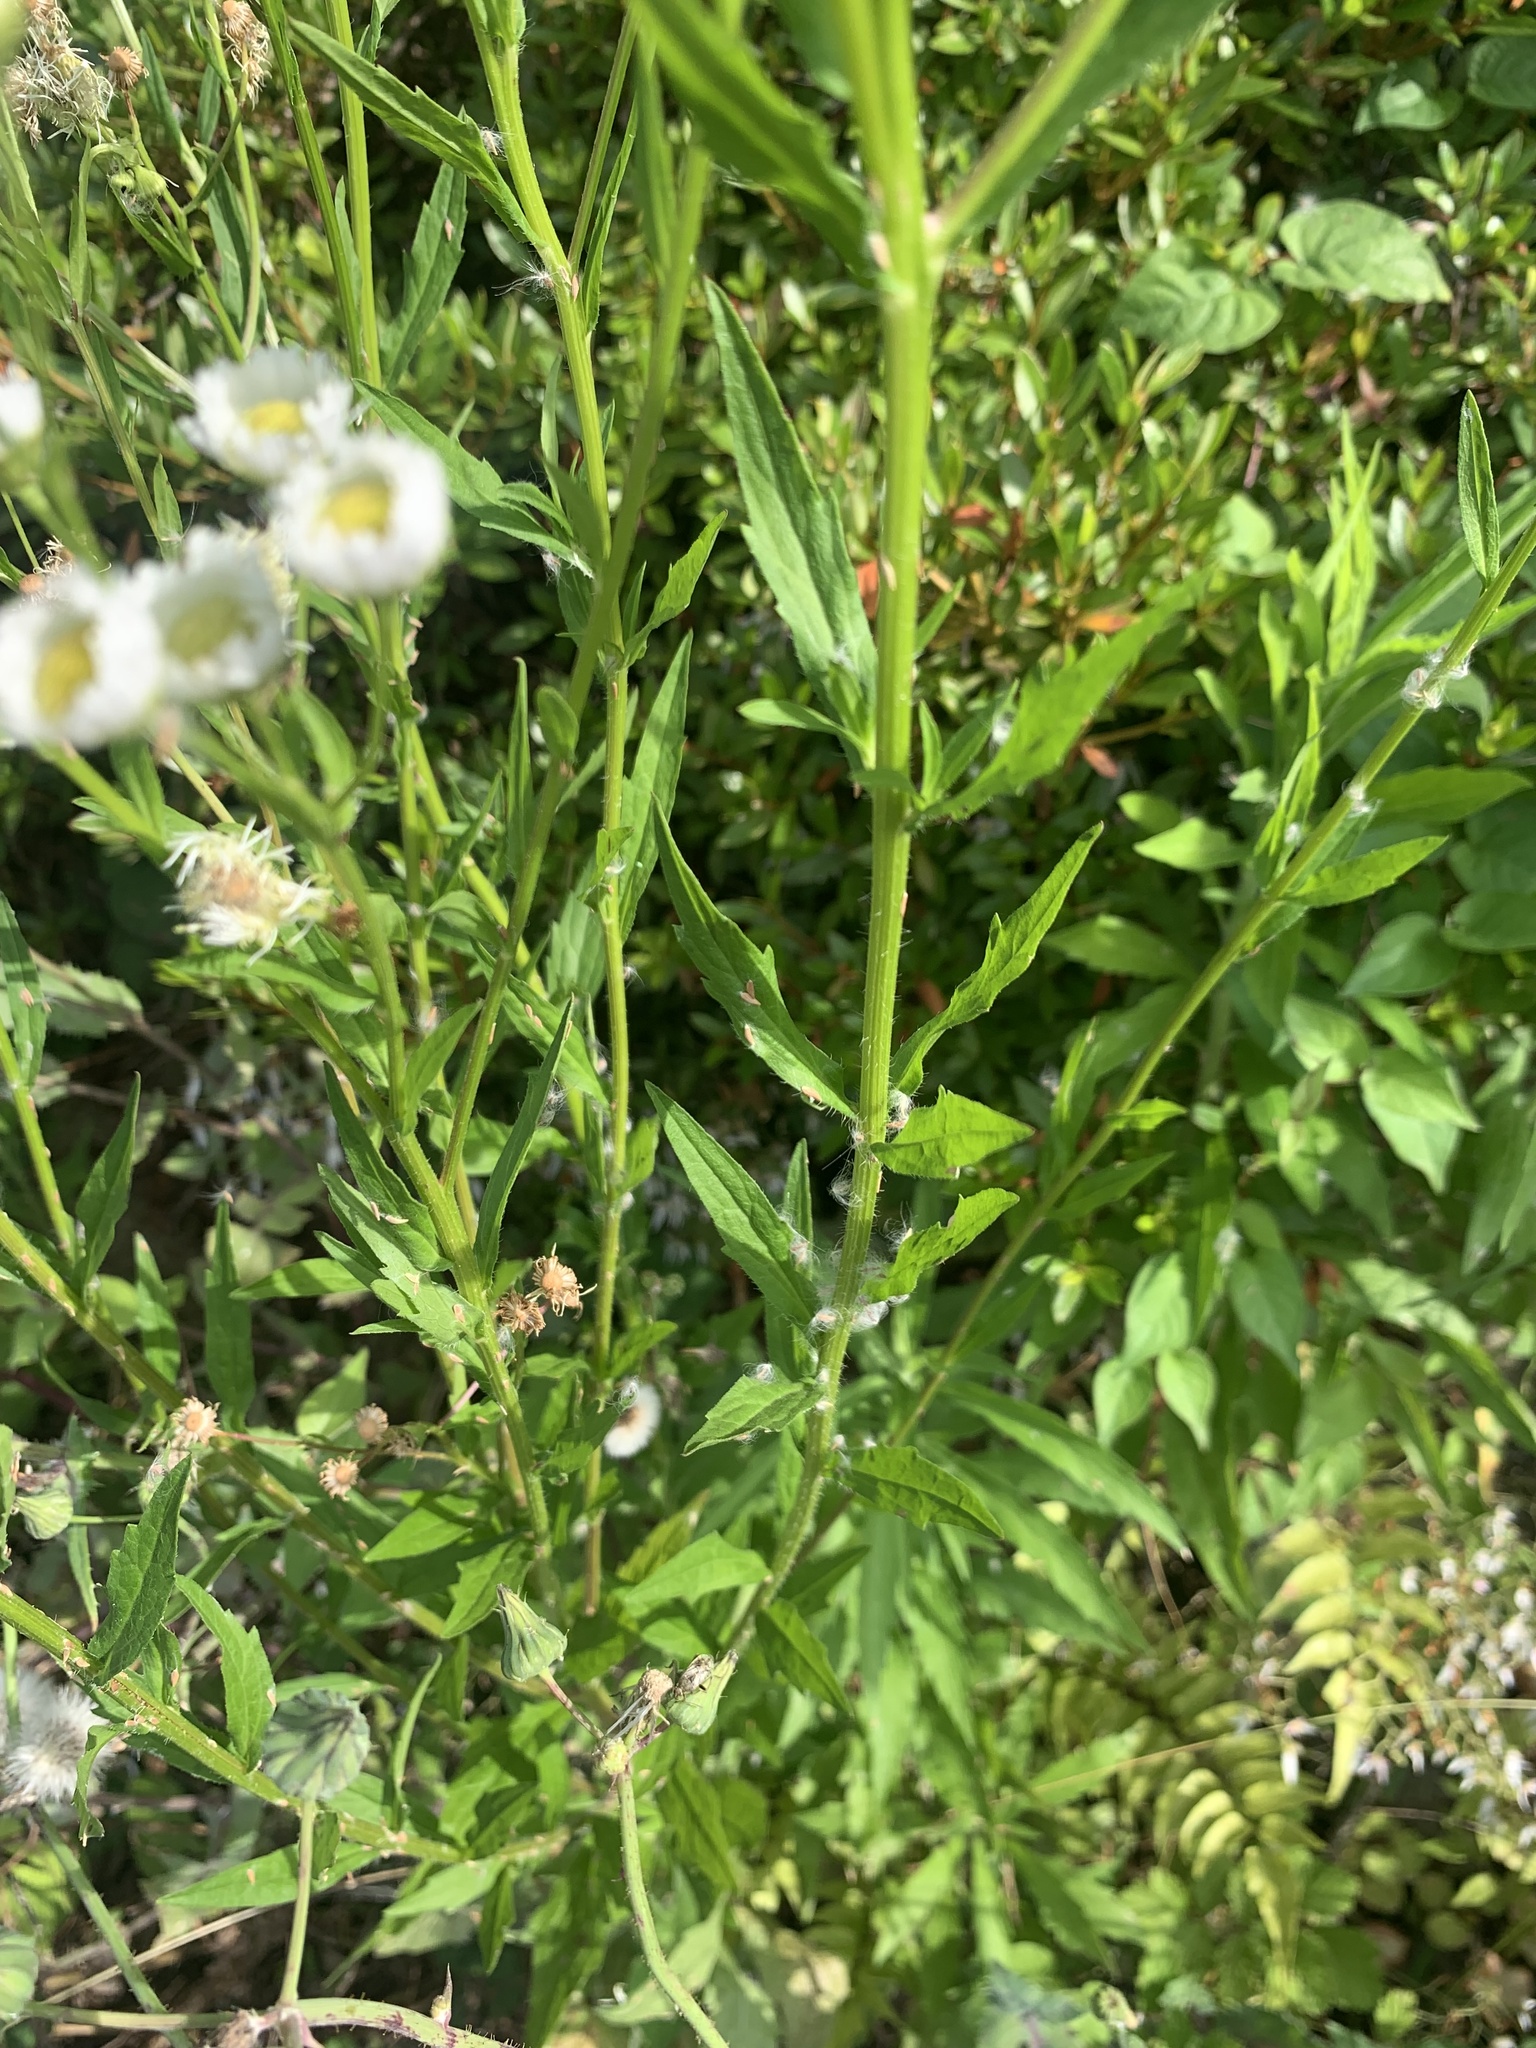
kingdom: Plantae
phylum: Tracheophyta
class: Magnoliopsida
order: Asterales
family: Asteraceae
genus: Erigeron
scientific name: Erigeron annuus
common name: Tall fleabane
